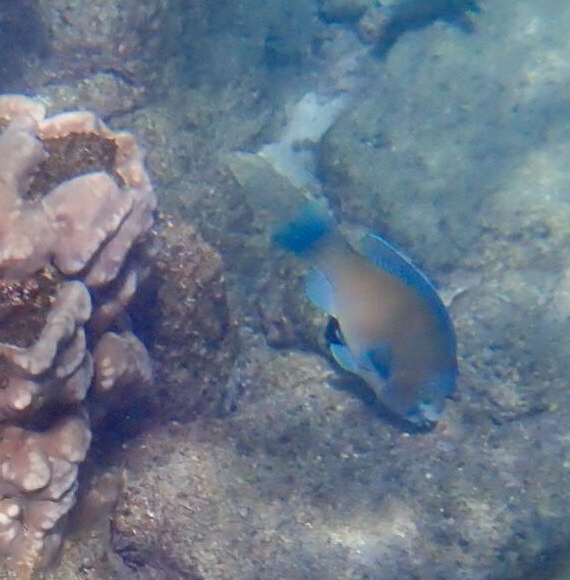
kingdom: Animalia
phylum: Chordata
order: Perciformes
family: Scaridae
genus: Scarus
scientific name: Scarus perrico
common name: Bumphead parrotfish
